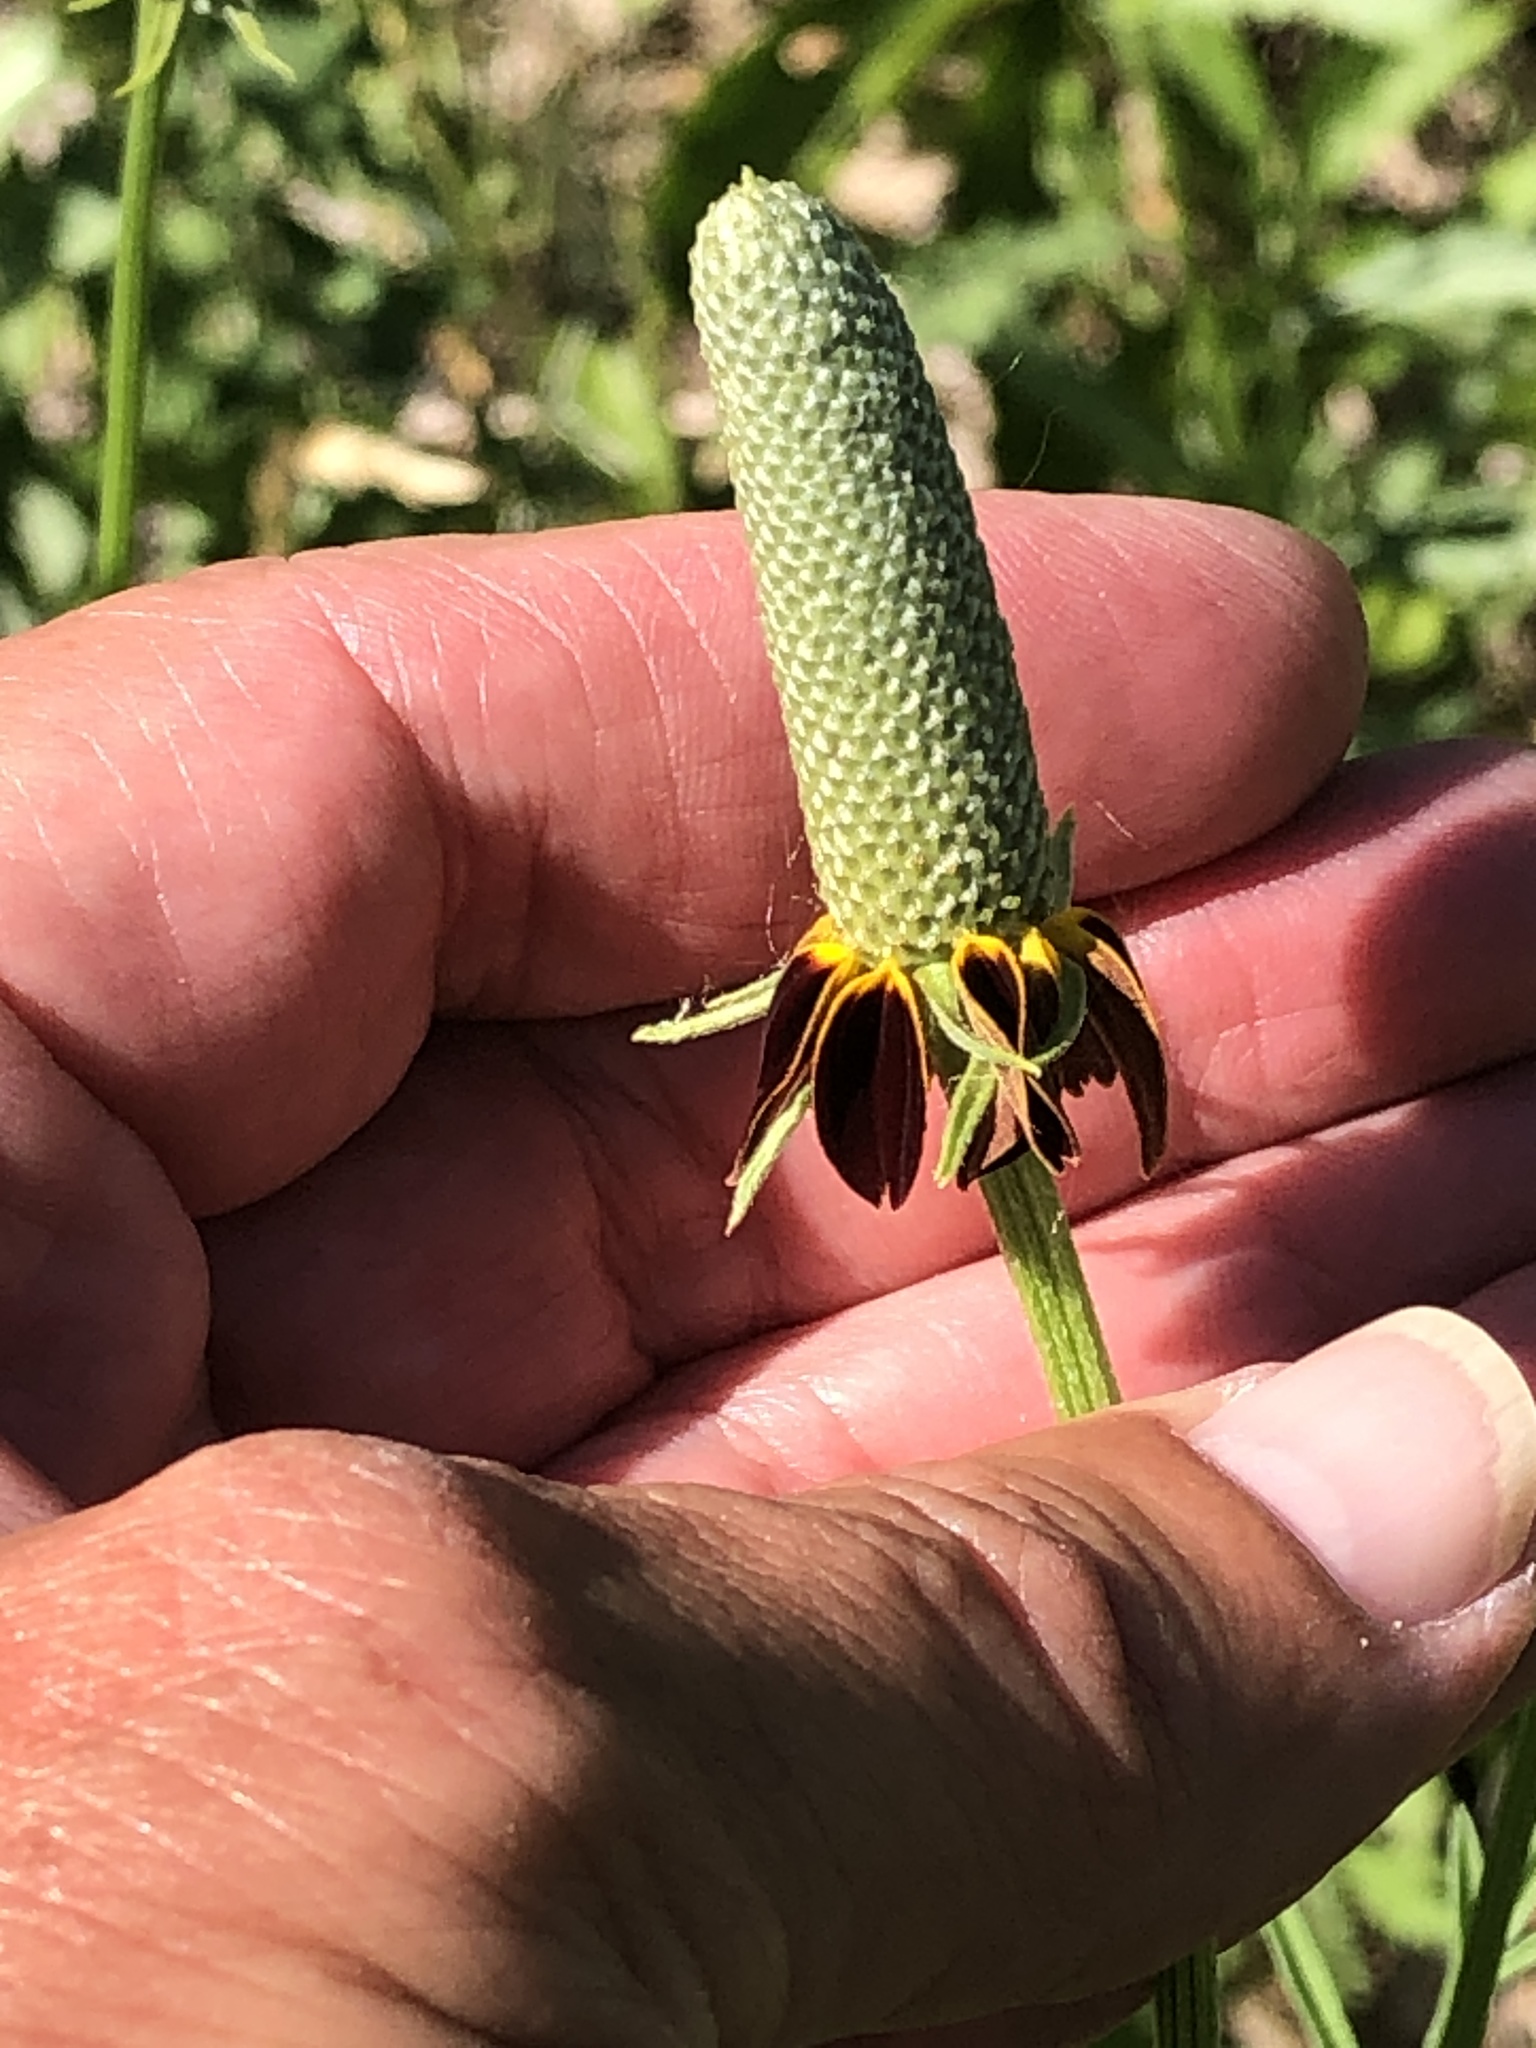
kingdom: Plantae
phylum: Tracheophyta
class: Magnoliopsida
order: Asterales
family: Asteraceae
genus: Ratibida
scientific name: Ratibida columnifera
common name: Prairie coneflower
